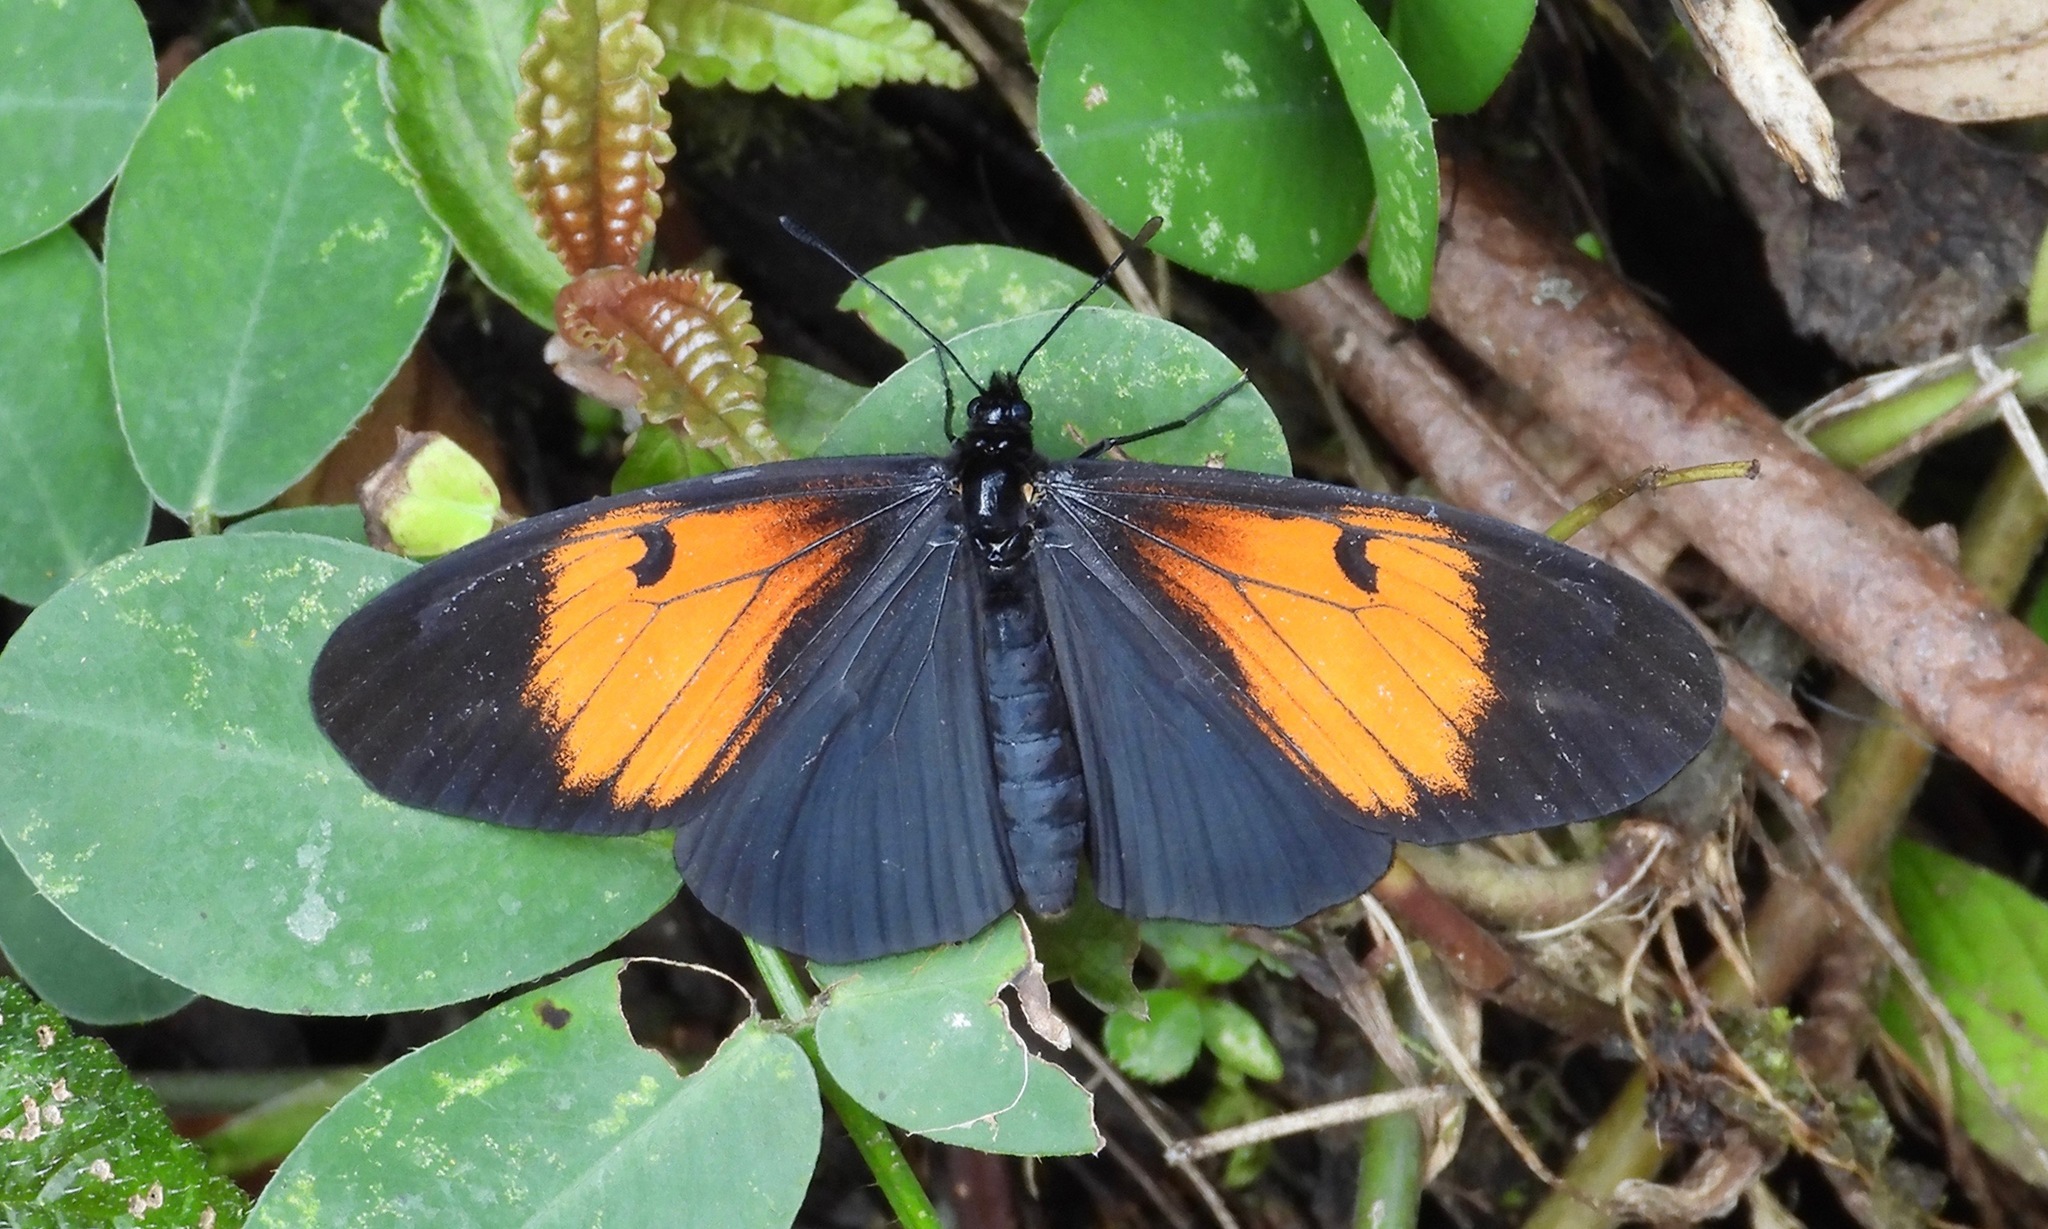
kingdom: Animalia
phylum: Arthropoda
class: Insecta
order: Lepidoptera
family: Nymphalidae
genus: Actinote
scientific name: Actinote stratonice
